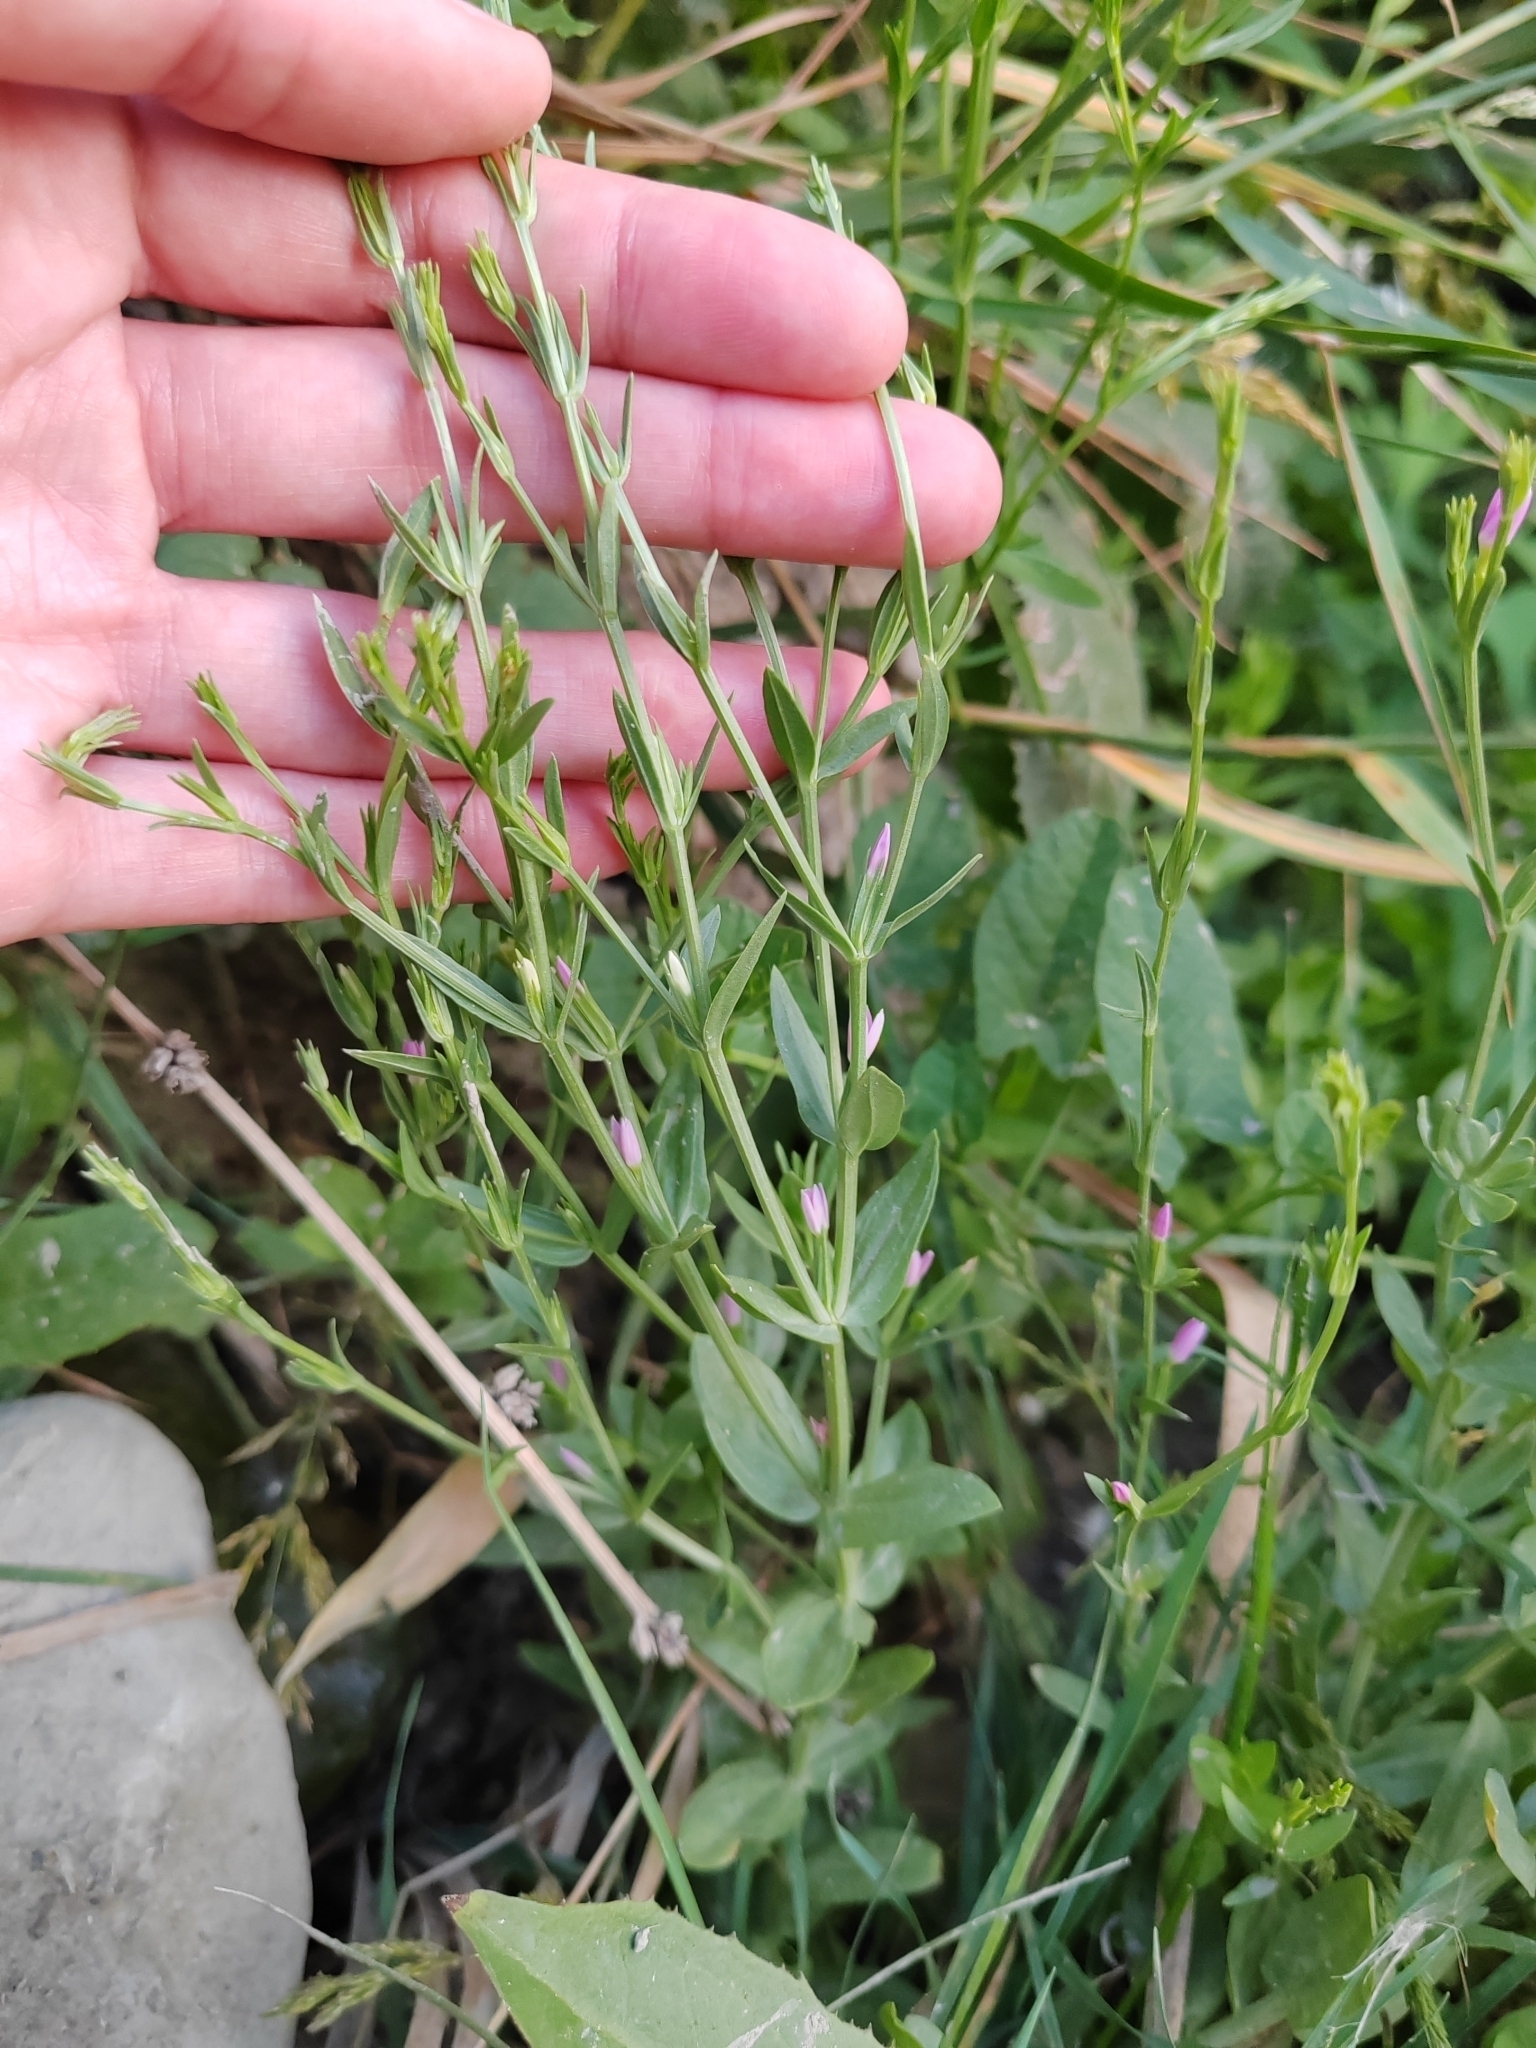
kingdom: Plantae
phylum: Tracheophyta
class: Magnoliopsida
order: Gentianales
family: Gentianaceae
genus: Schenkia
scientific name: Schenkia spicata
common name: Spiked centaury
